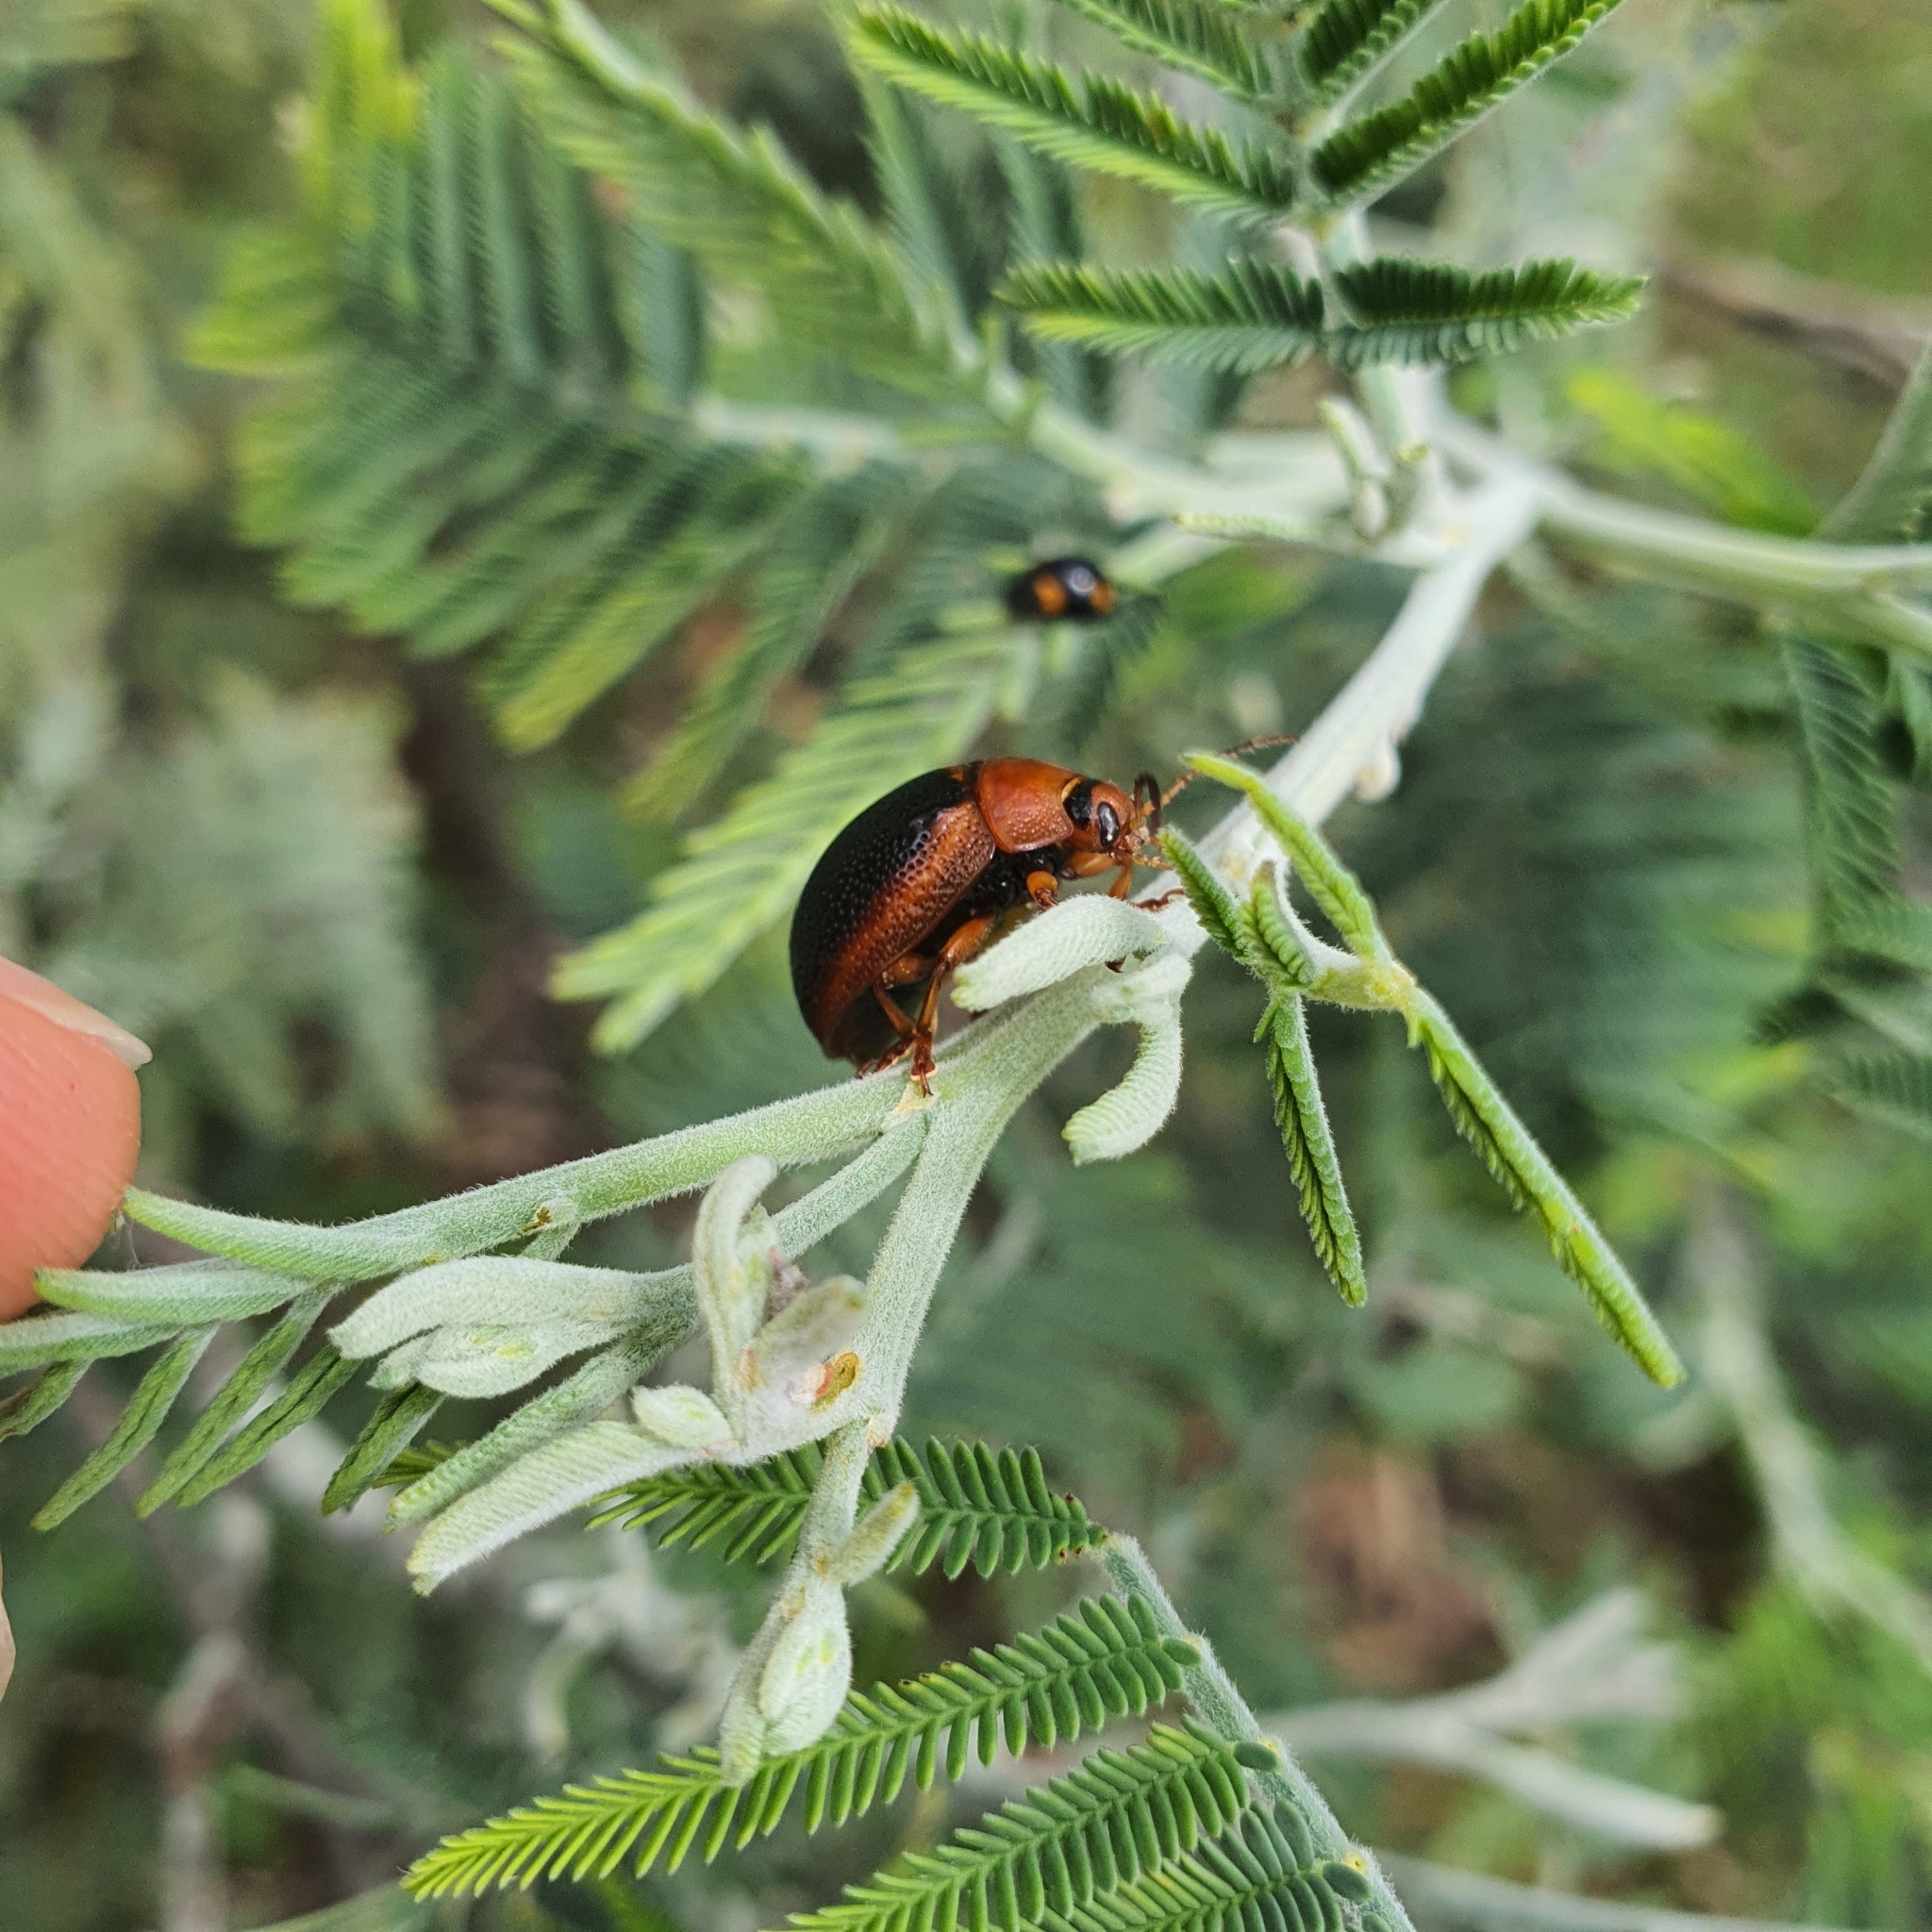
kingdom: Animalia
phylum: Arthropoda
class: Insecta
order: Coleoptera
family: Chrysomelidae
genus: Dicranosterna
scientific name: Dicranosterna
